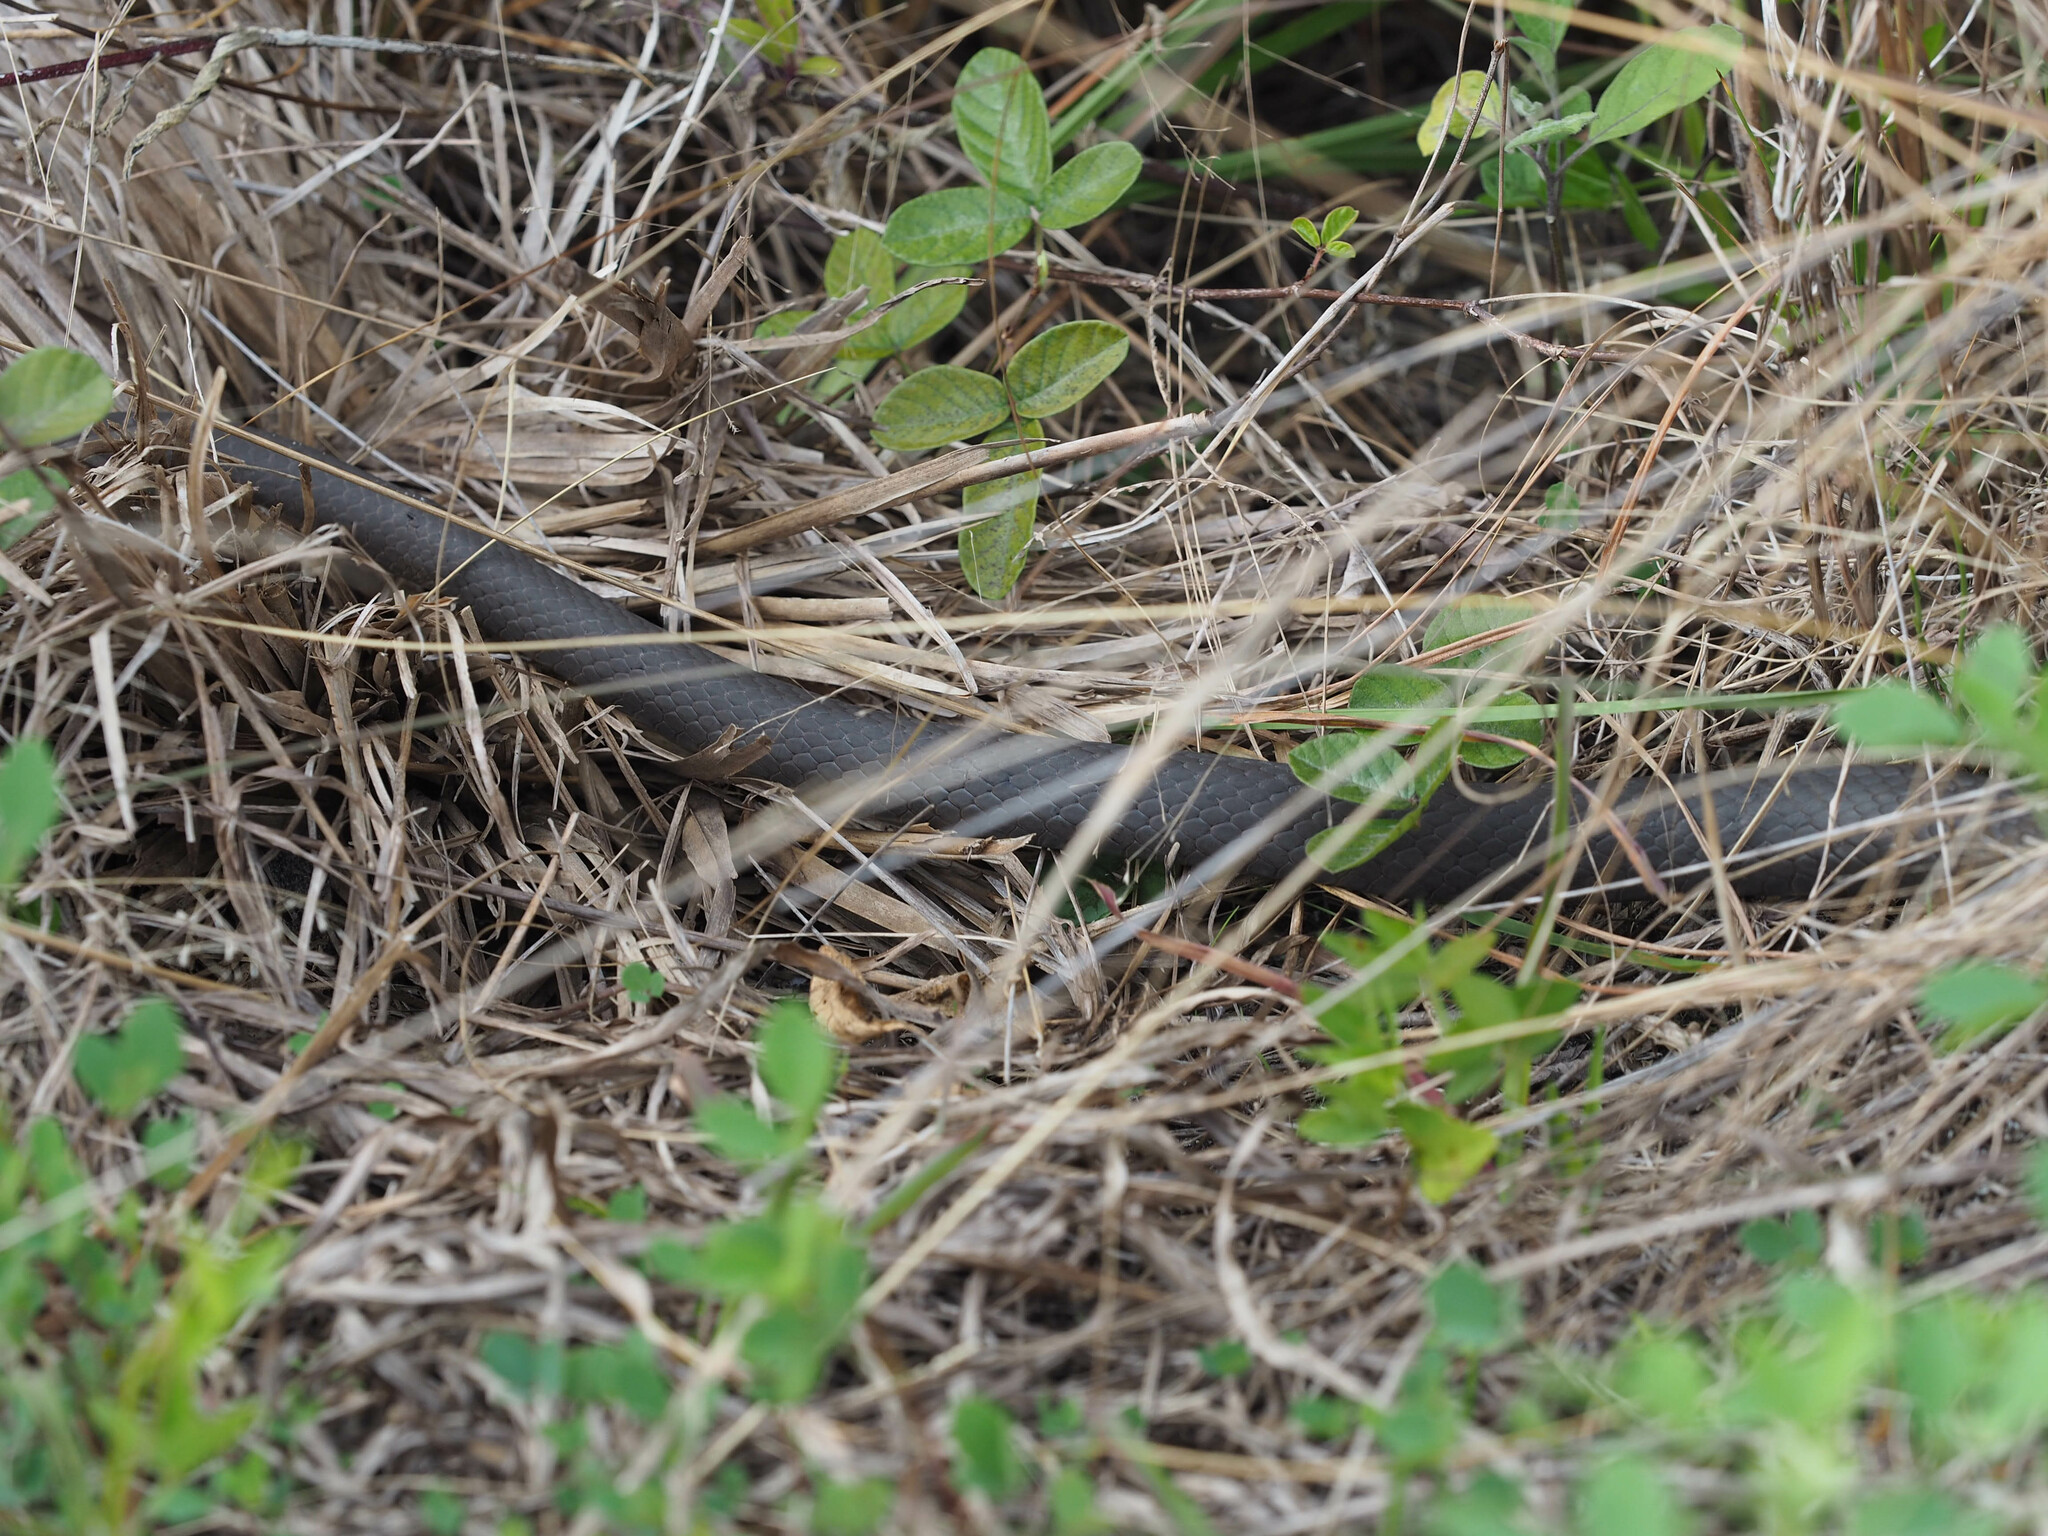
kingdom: Animalia
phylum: Chordata
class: Squamata
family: Colubridae
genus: Coluber
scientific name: Coluber constrictor
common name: Eastern racer
